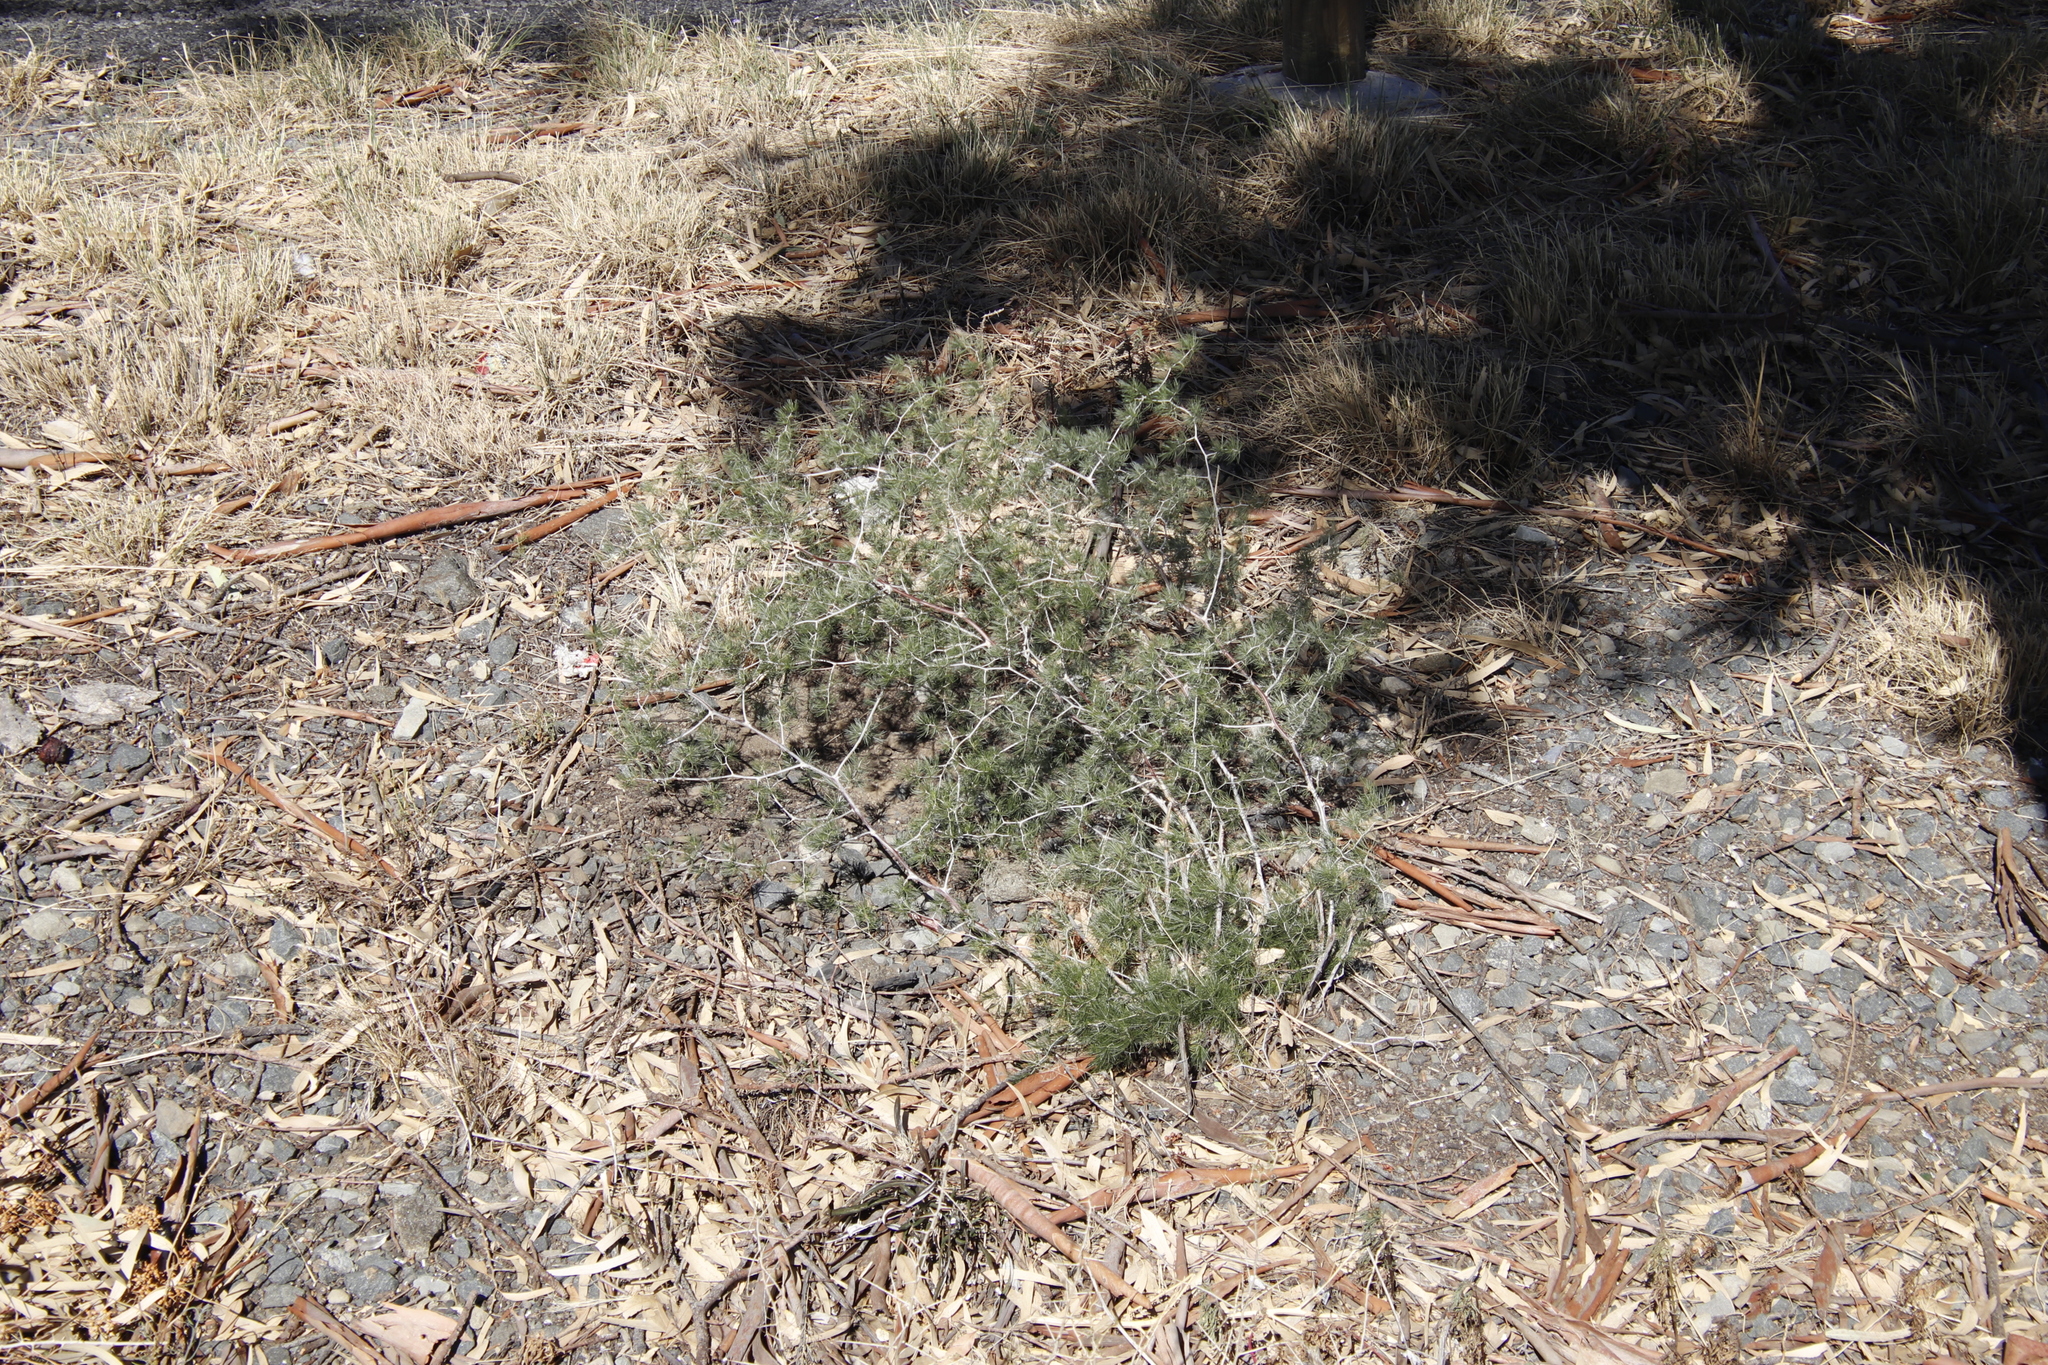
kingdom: Plantae
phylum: Tracheophyta
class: Liliopsida
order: Asparagales
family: Asparagaceae
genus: Asparagus
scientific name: Asparagus retrofractus
